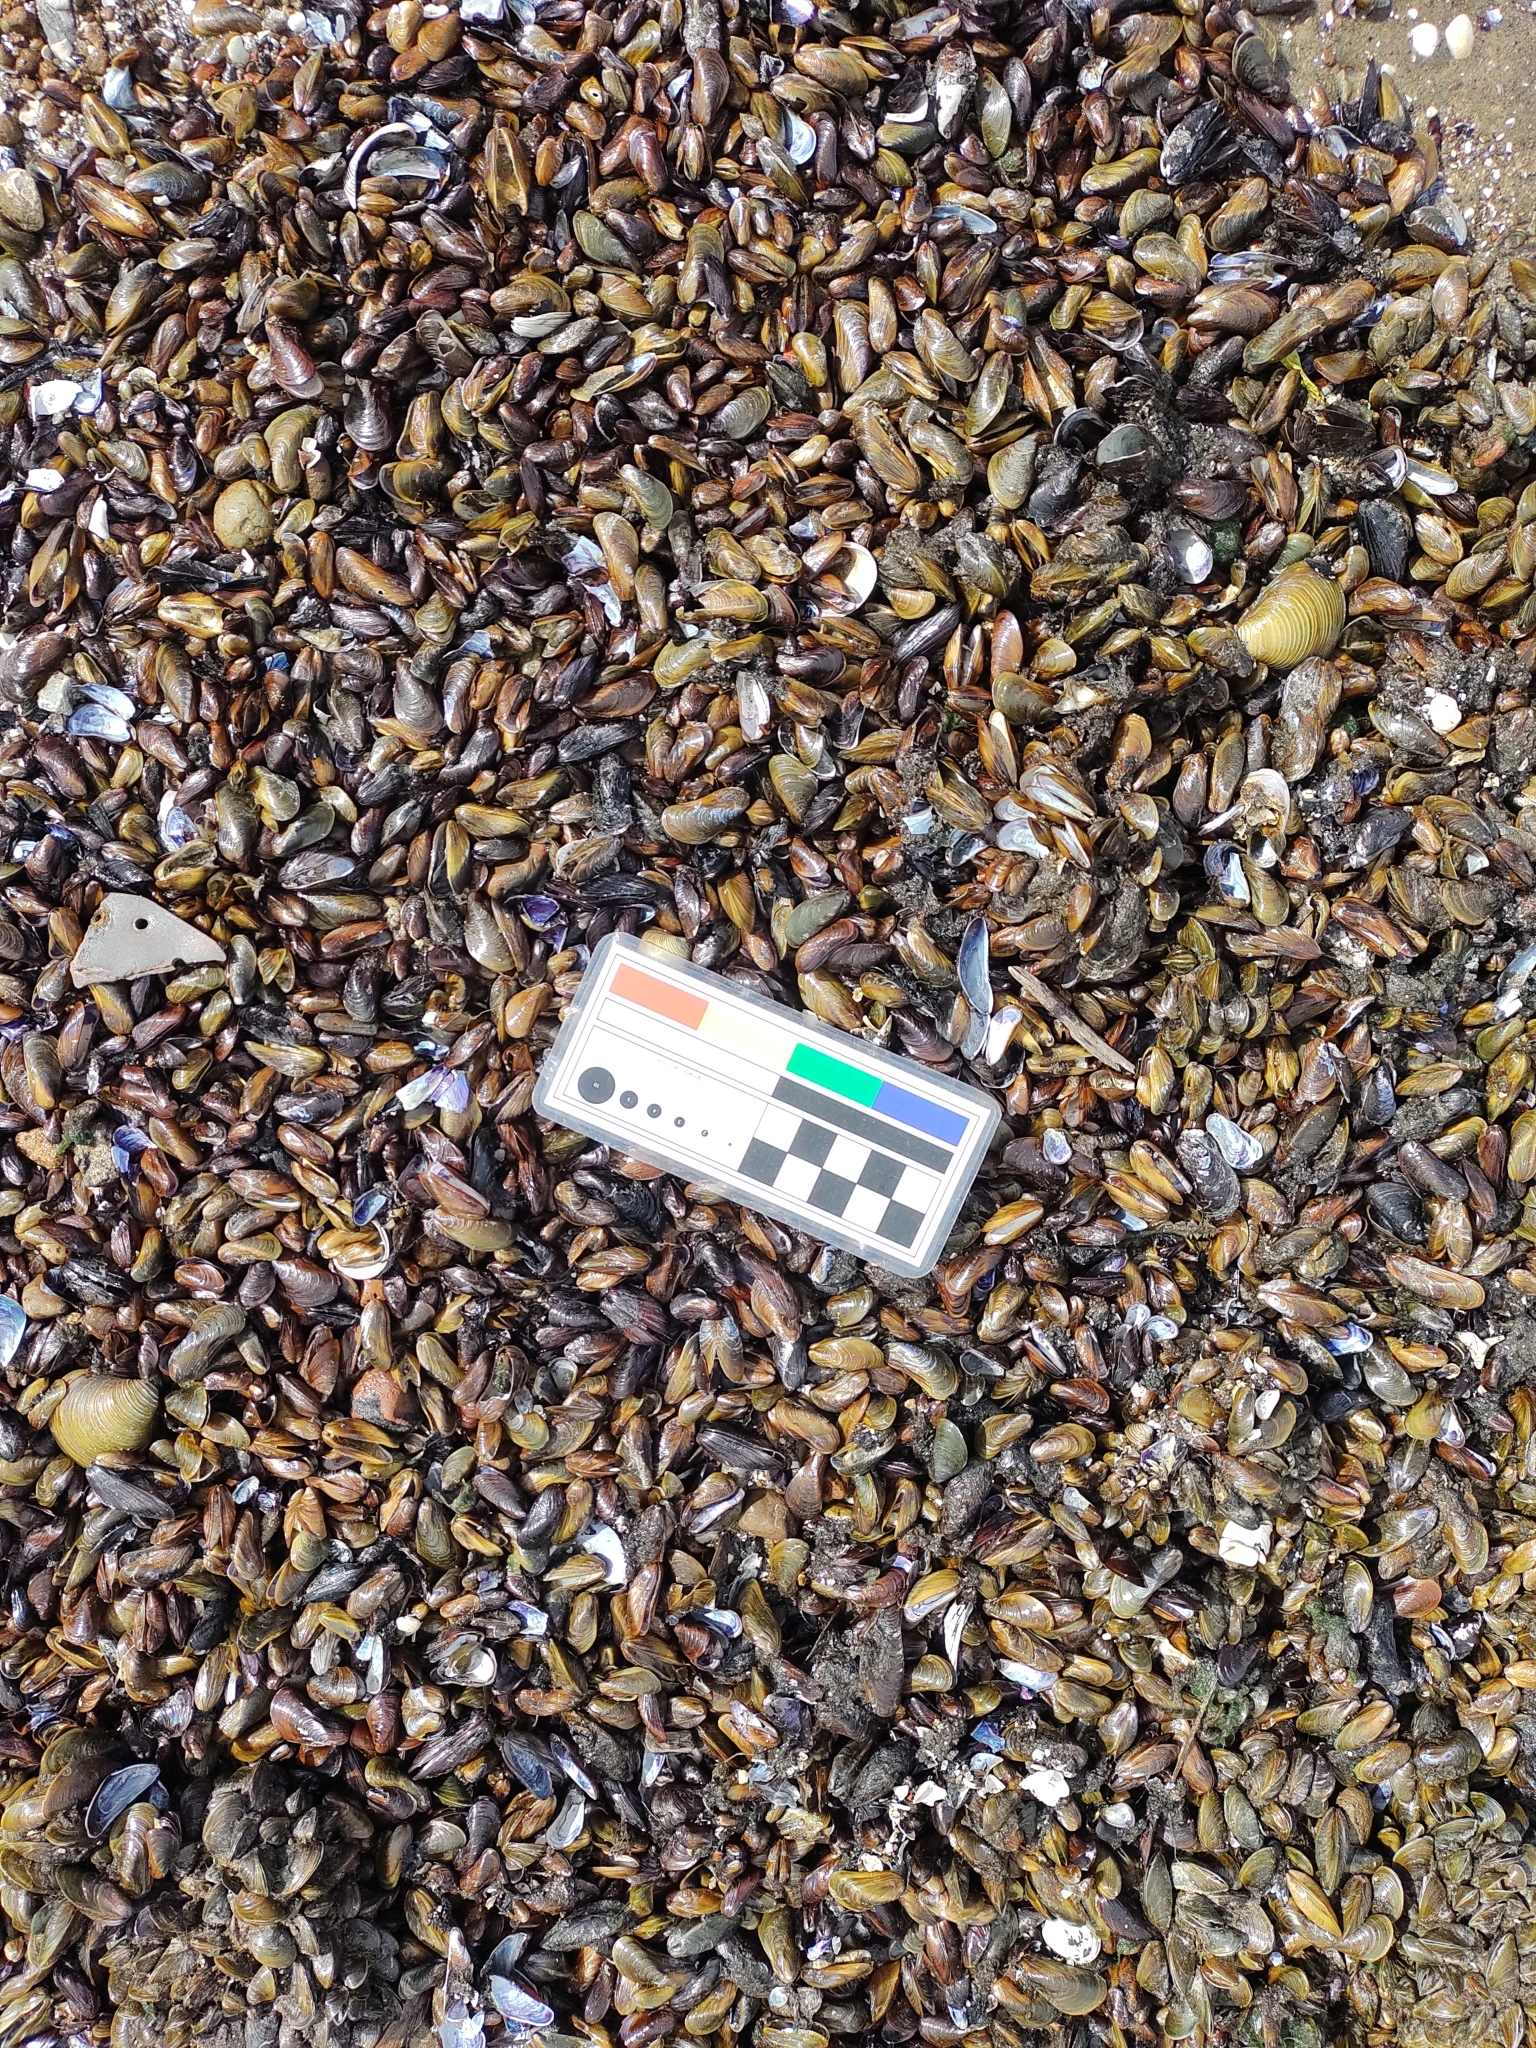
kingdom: Animalia
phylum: Mollusca
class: Bivalvia
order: Mytilida
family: Mytilidae
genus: Limnoperna
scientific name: Limnoperna fortunei
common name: Golden mussel
